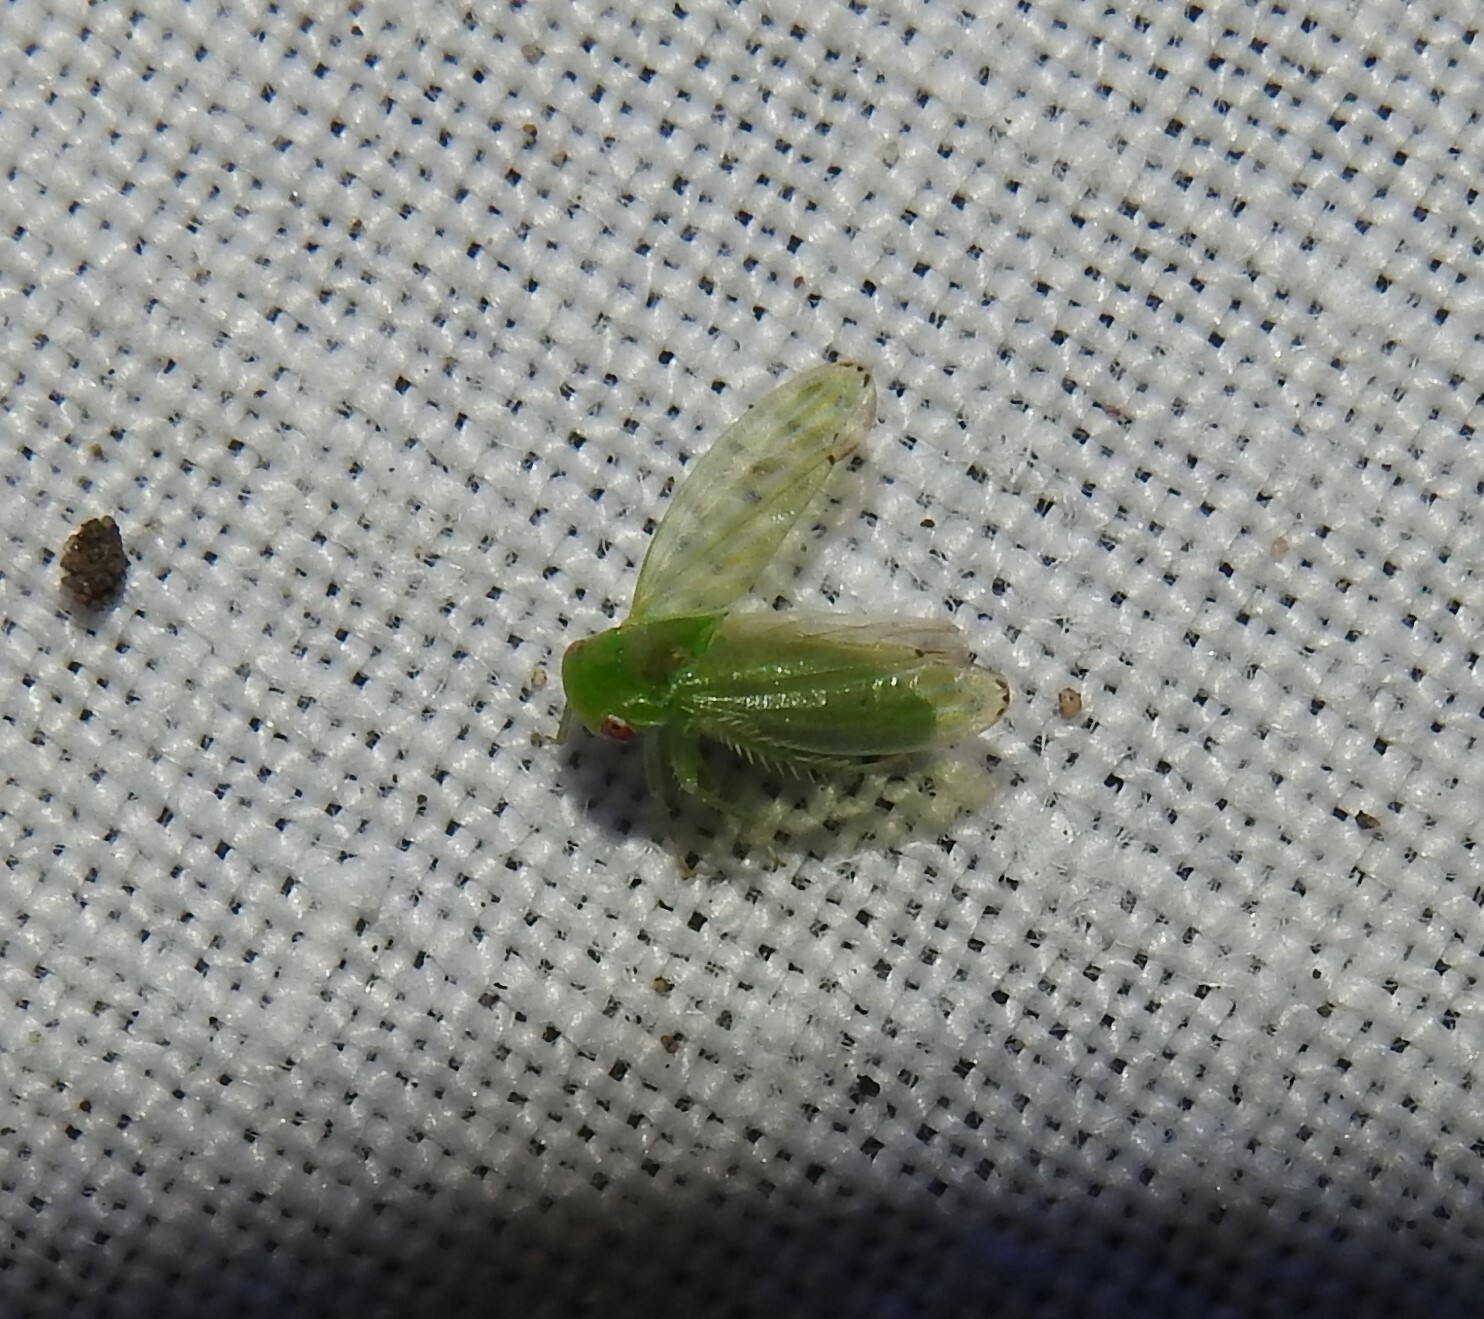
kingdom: Animalia
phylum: Arthropoda
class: Insecta
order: Hemiptera
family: Cicadellidae
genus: Stragania
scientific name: Stragania apicalis
